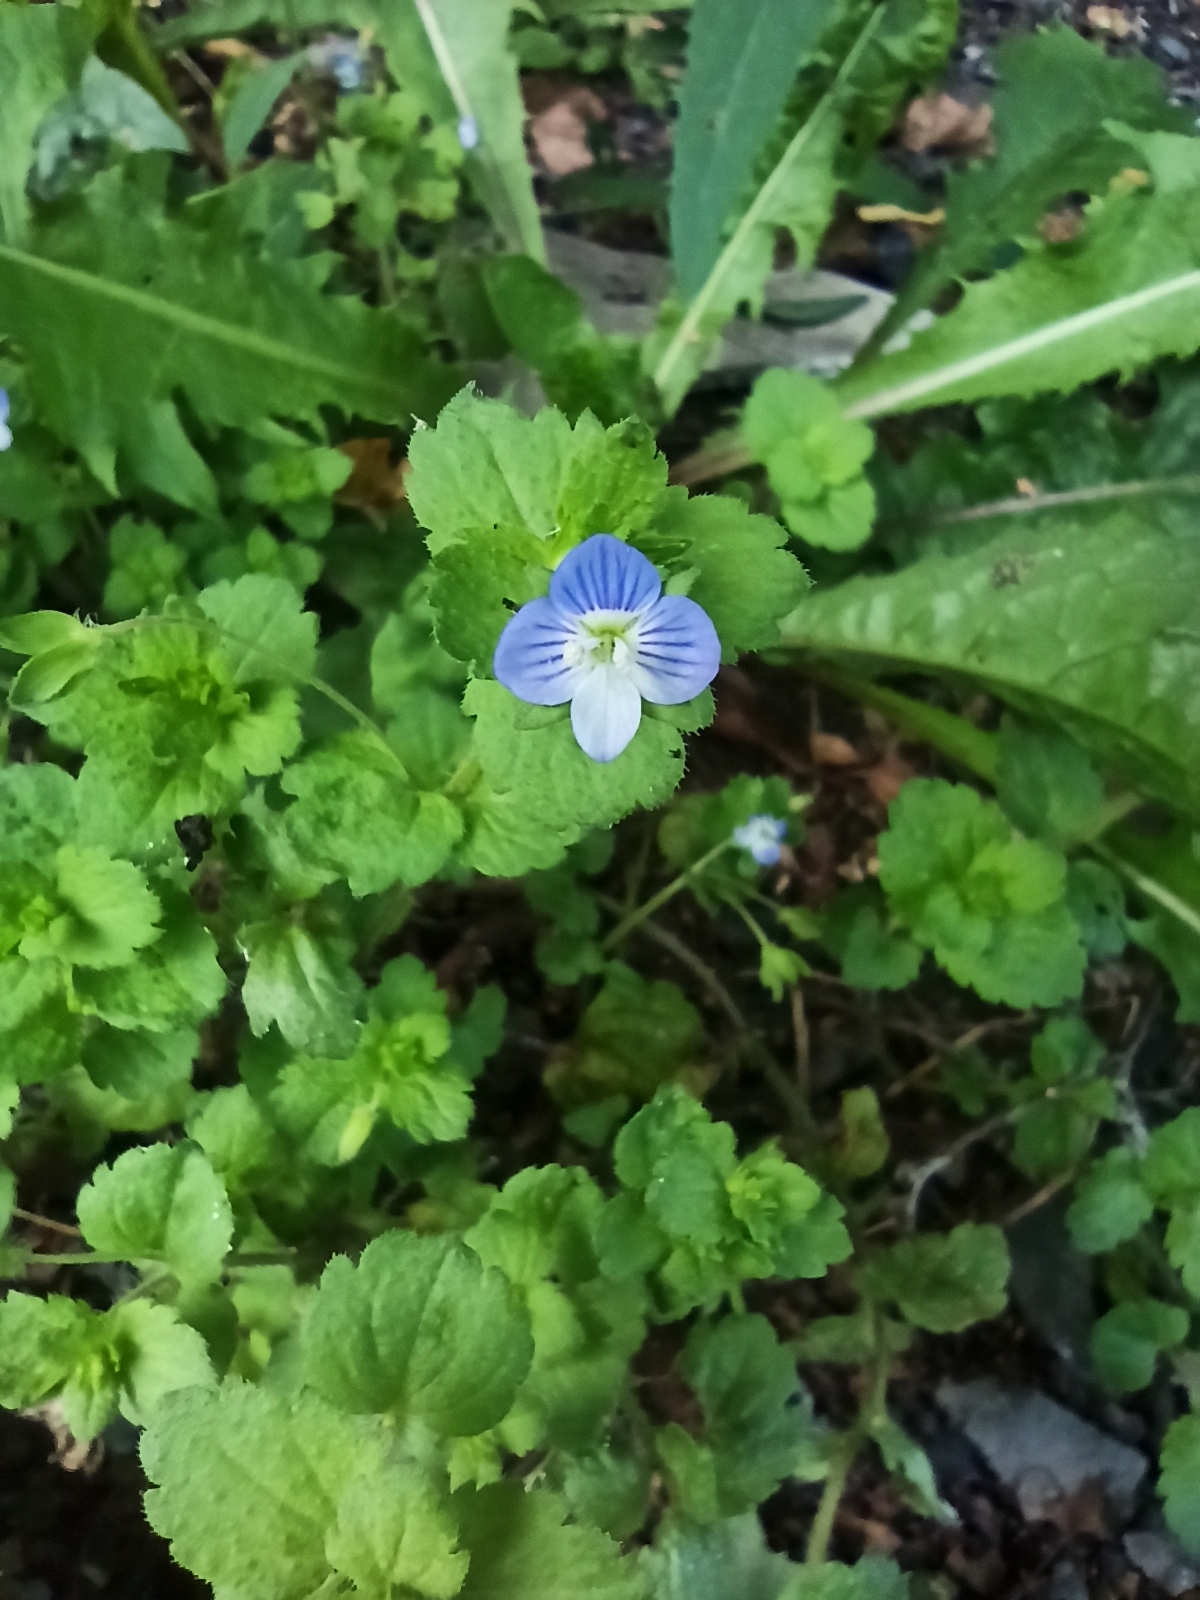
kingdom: Plantae
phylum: Tracheophyta
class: Magnoliopsida
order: Lamiales
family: Plantaginaceae
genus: Veronica
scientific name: Veronica persica
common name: Common field-speedwell
